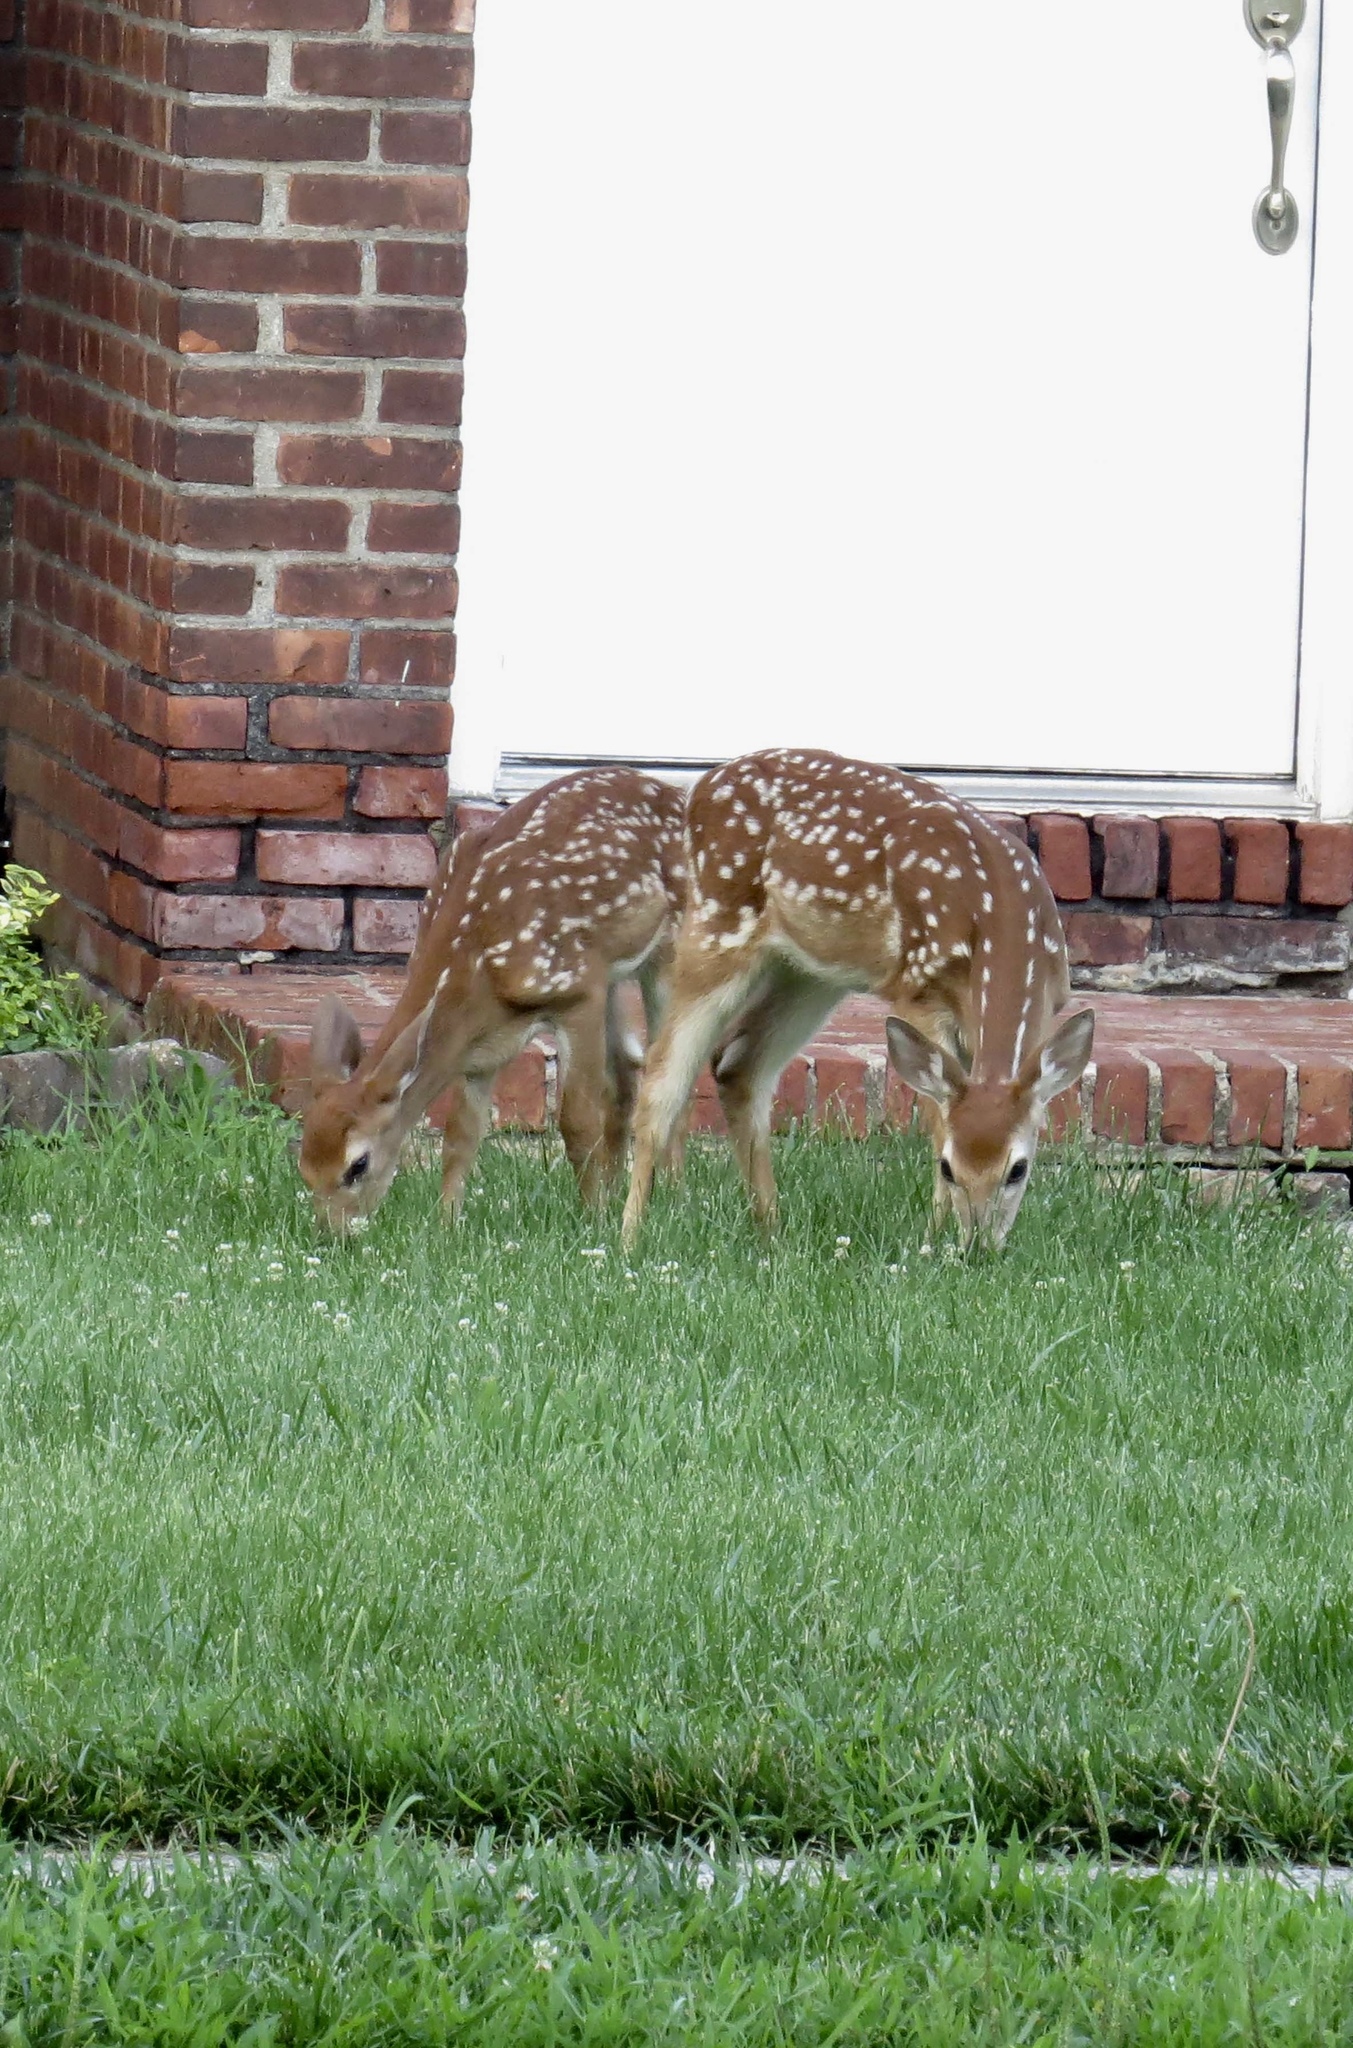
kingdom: Animalia
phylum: Chordata
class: Mammalia
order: Artiodactyla
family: Cervidae
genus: Odocoileus
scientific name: Odocoileus virginianus
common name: White-tailed deer
